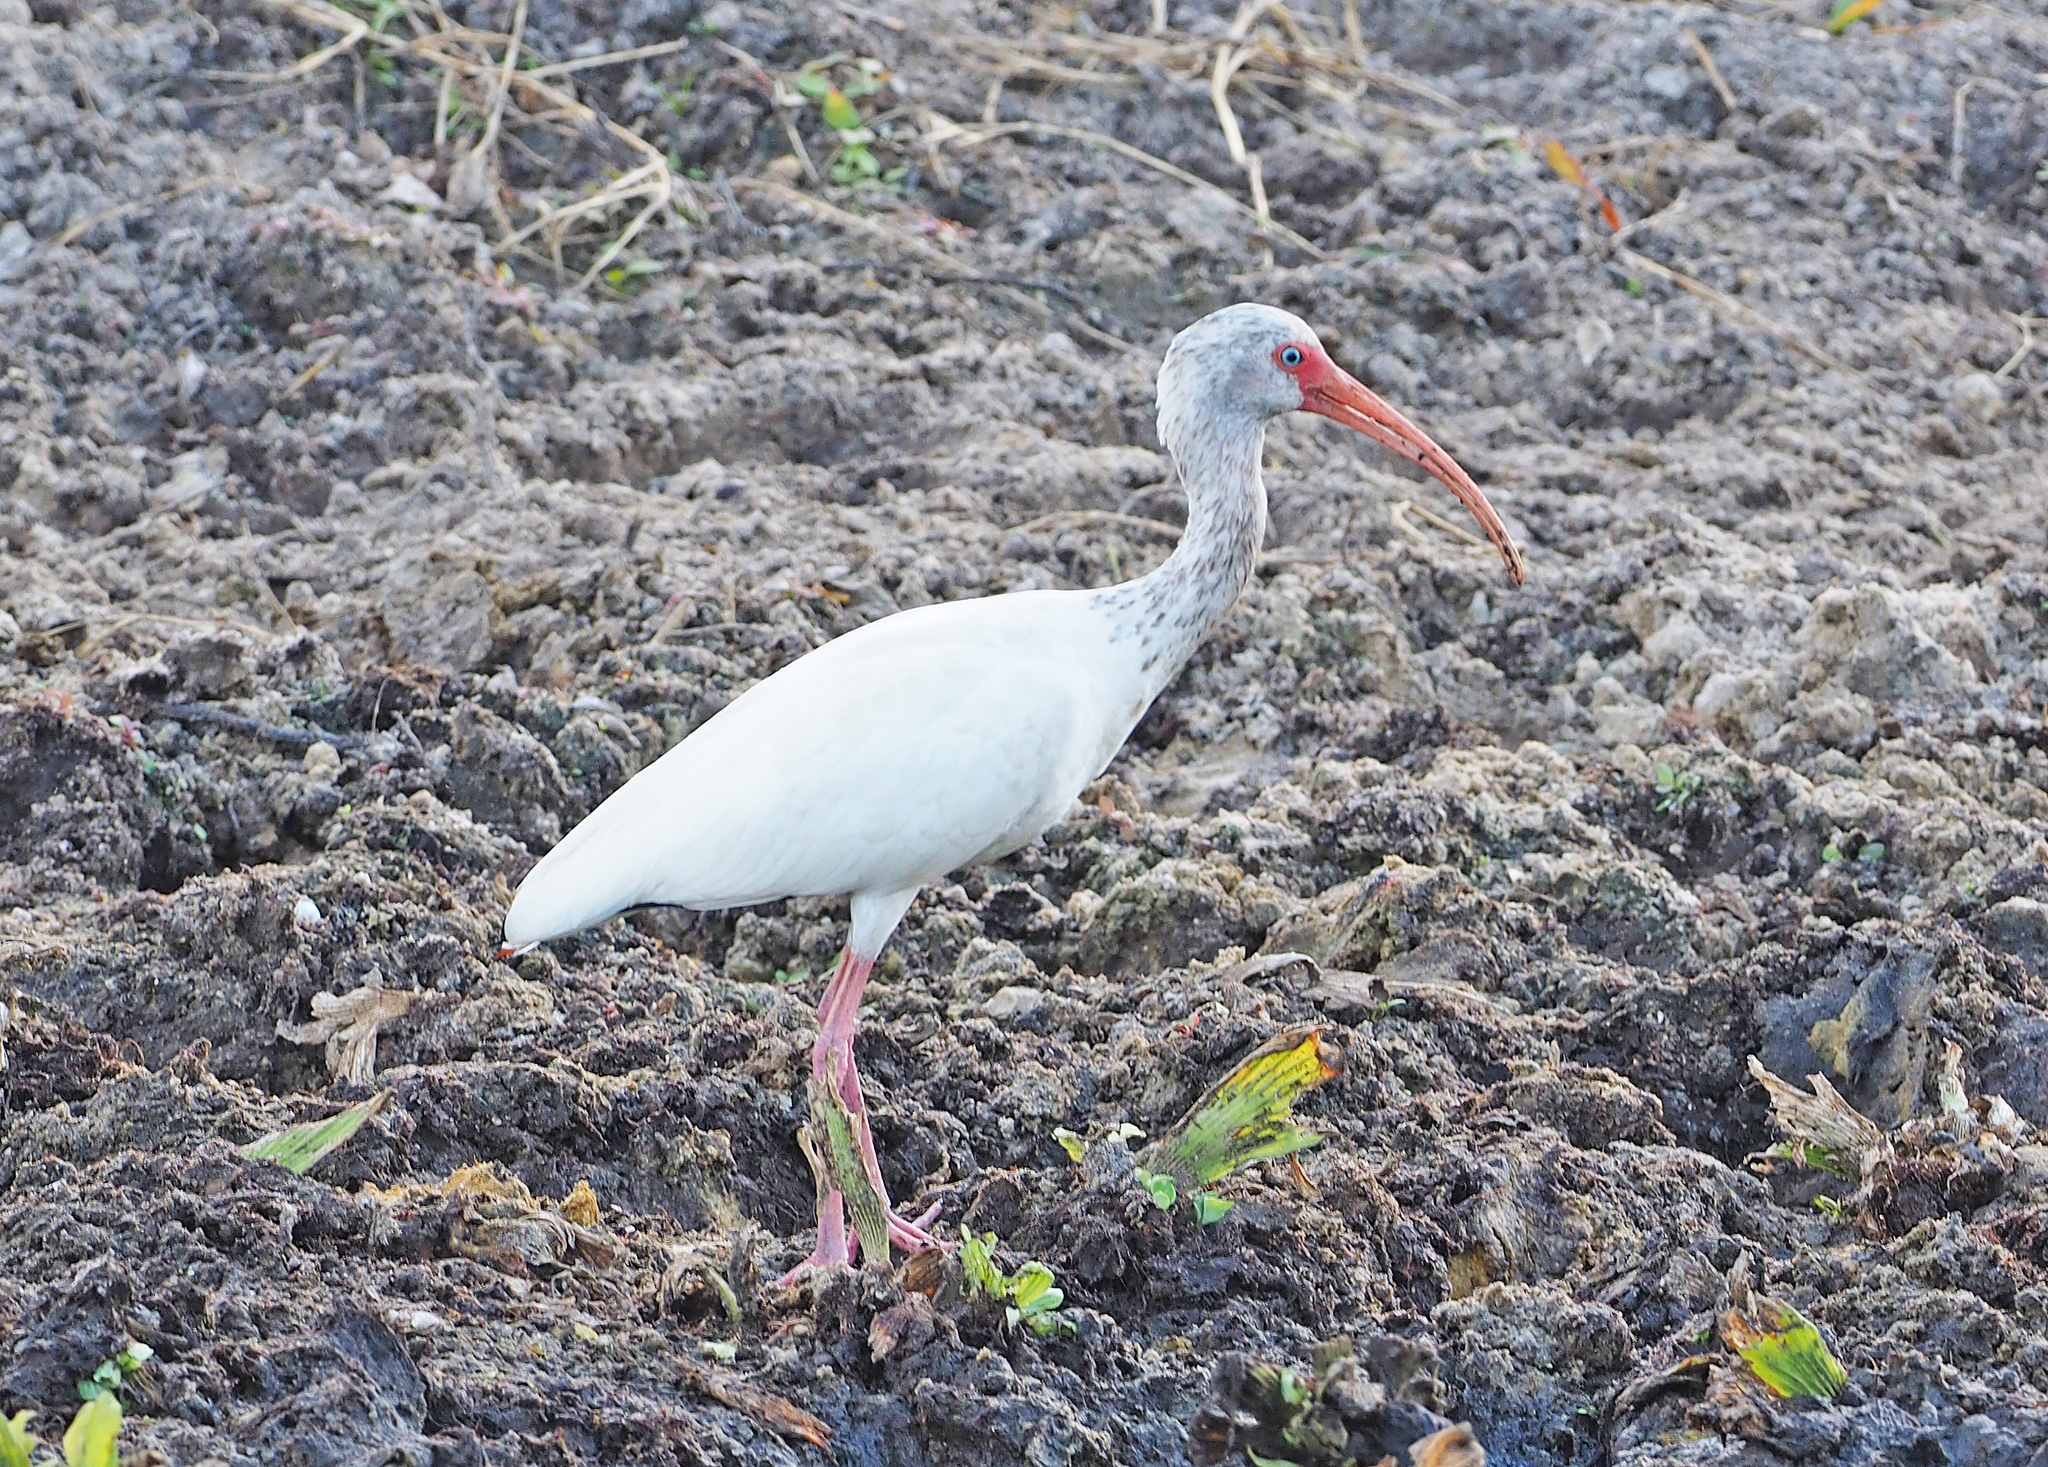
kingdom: Animalia
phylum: Chordata
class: Aves
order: Pelecaniformes
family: Threskiornithidae
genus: Eudocimus
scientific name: Eudocimus albus
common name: White ibis
